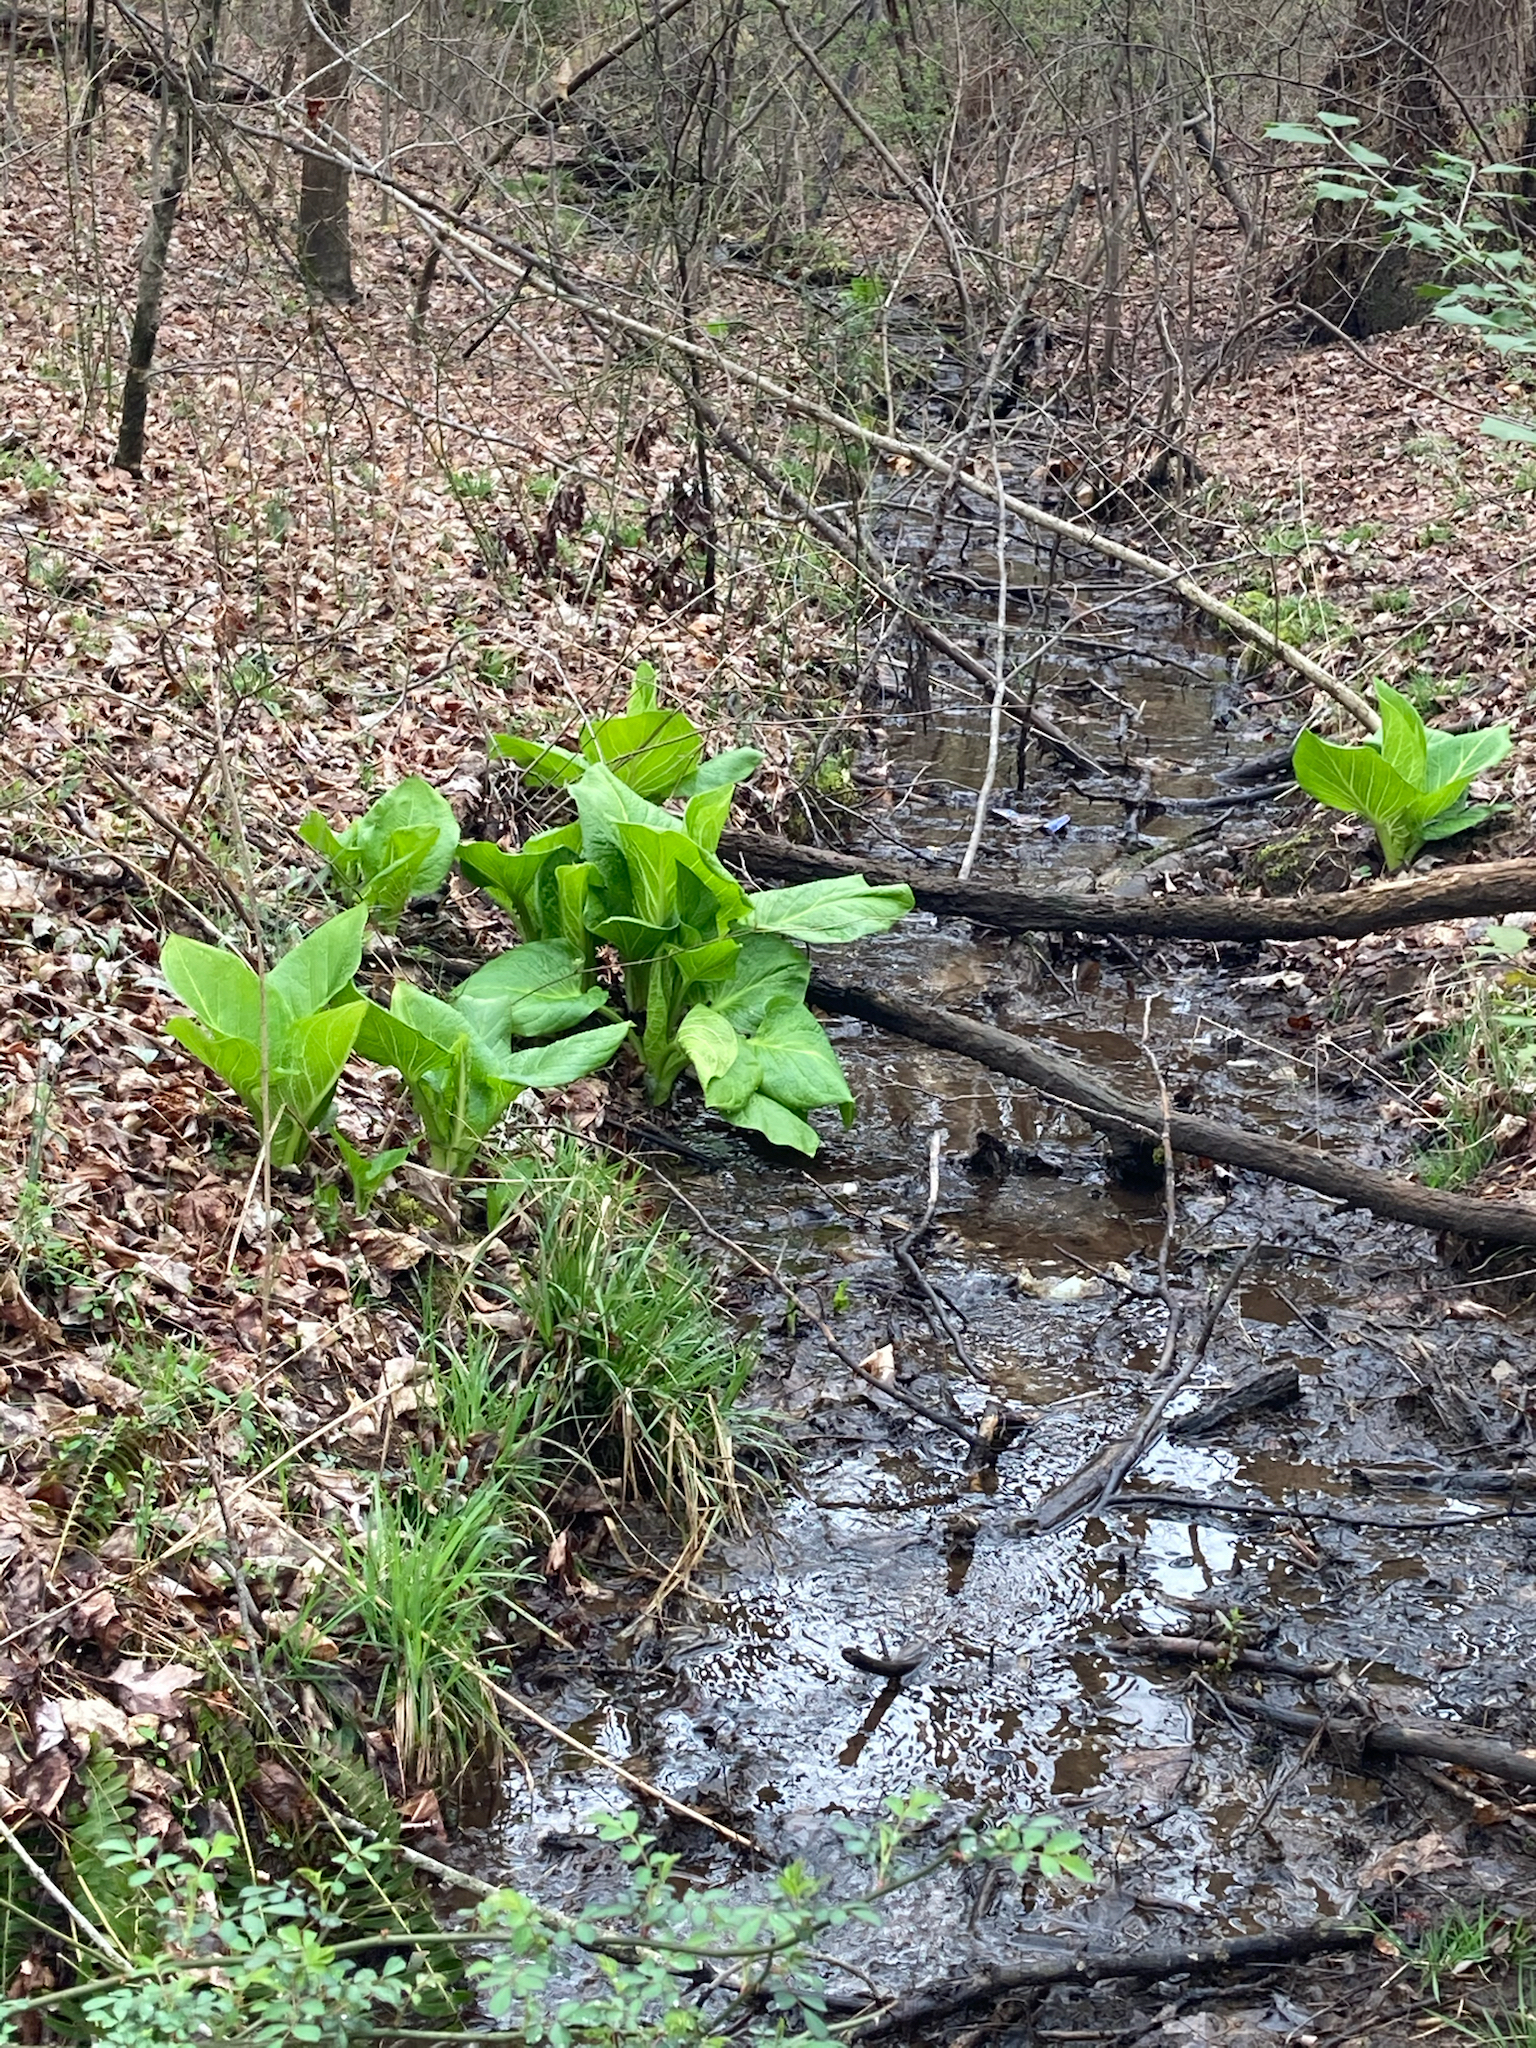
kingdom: Plantae
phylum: Tracheophyta
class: Liliopsida
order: Alismatales
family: Araceae
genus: Symplocarpus
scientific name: Symplocarpus foetidus
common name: Eastern skunk cabbage
